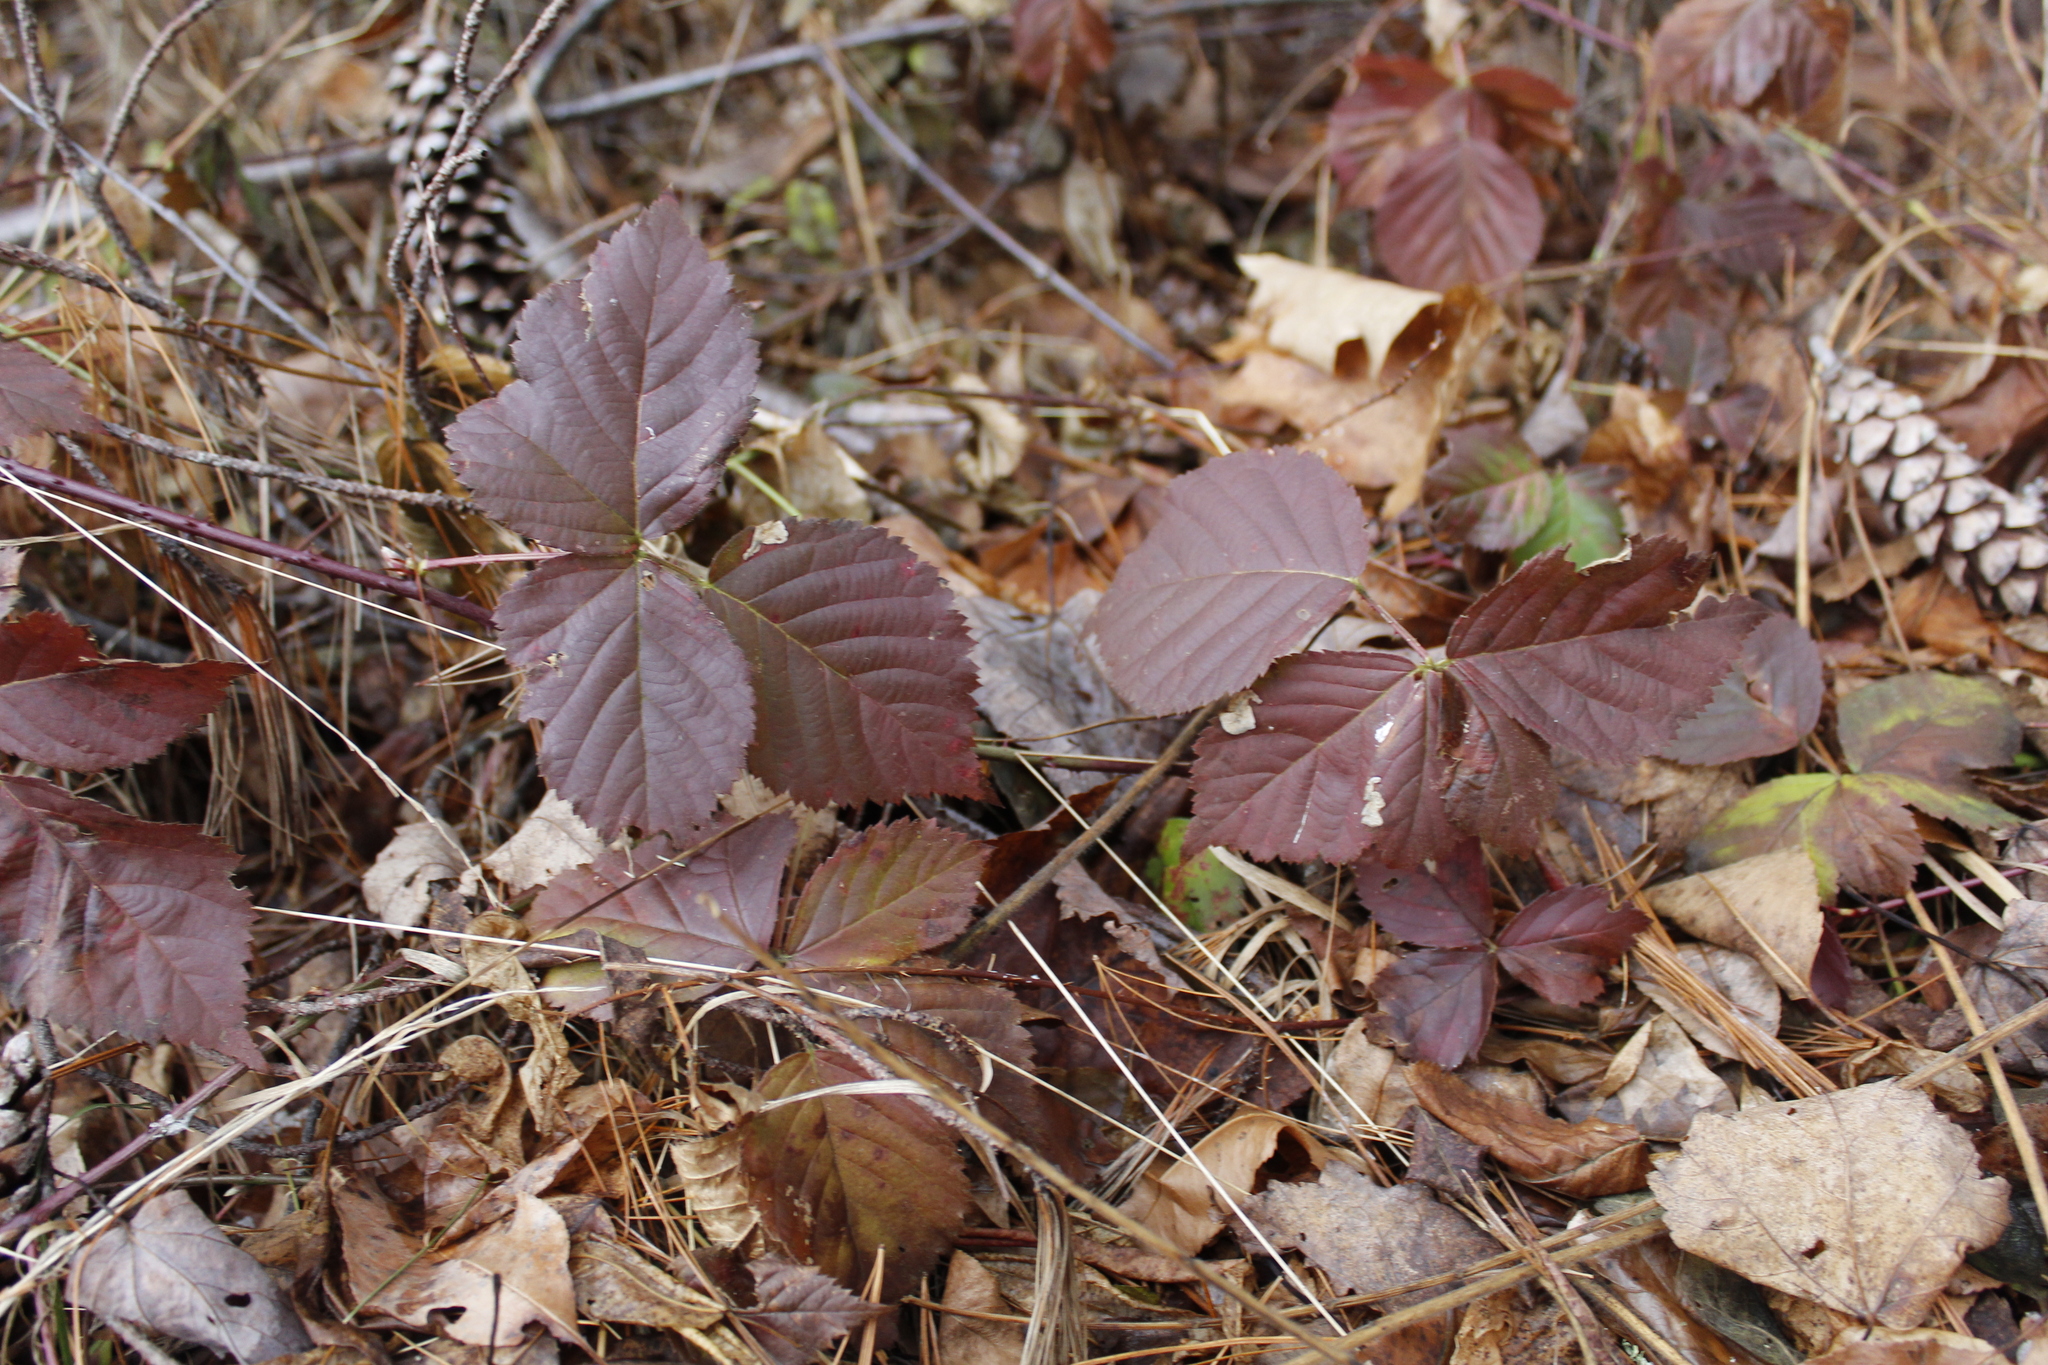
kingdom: Plantae
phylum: Tracheophyta
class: Magnoliopsida
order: Rosales
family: Rosaceae
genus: Rubus
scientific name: Rubus
